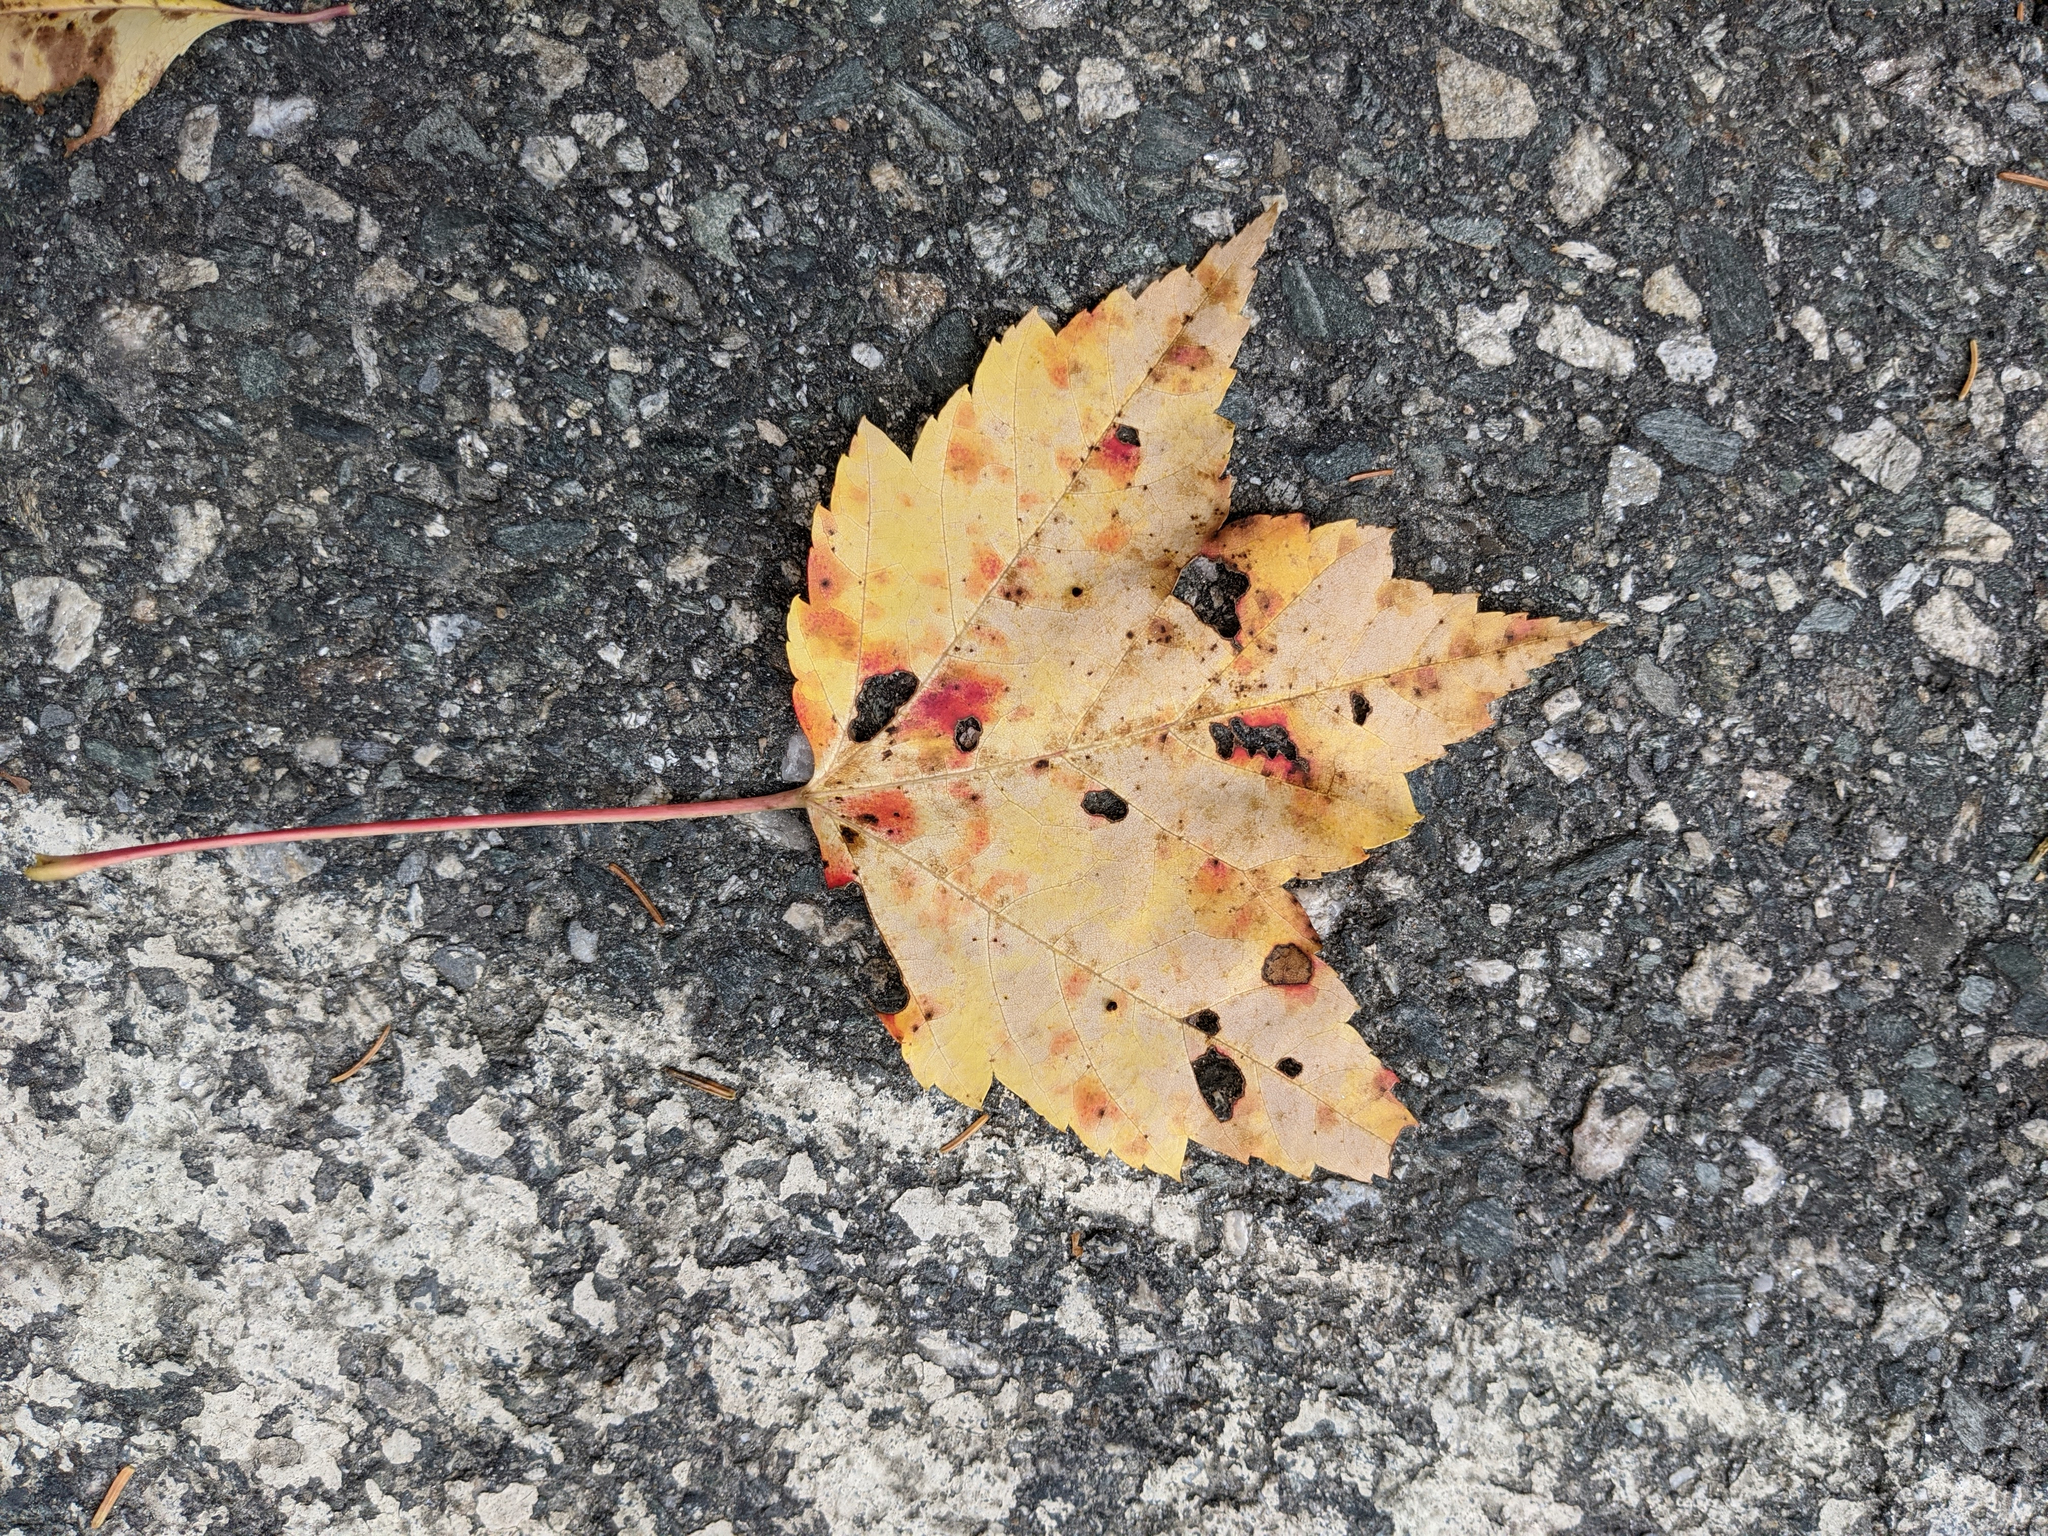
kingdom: Plantae
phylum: Tracheophyta
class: Magnoliopsida
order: Sapindales
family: Sapindaceae
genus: Acer
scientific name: Acer rubrum
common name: Red maple
